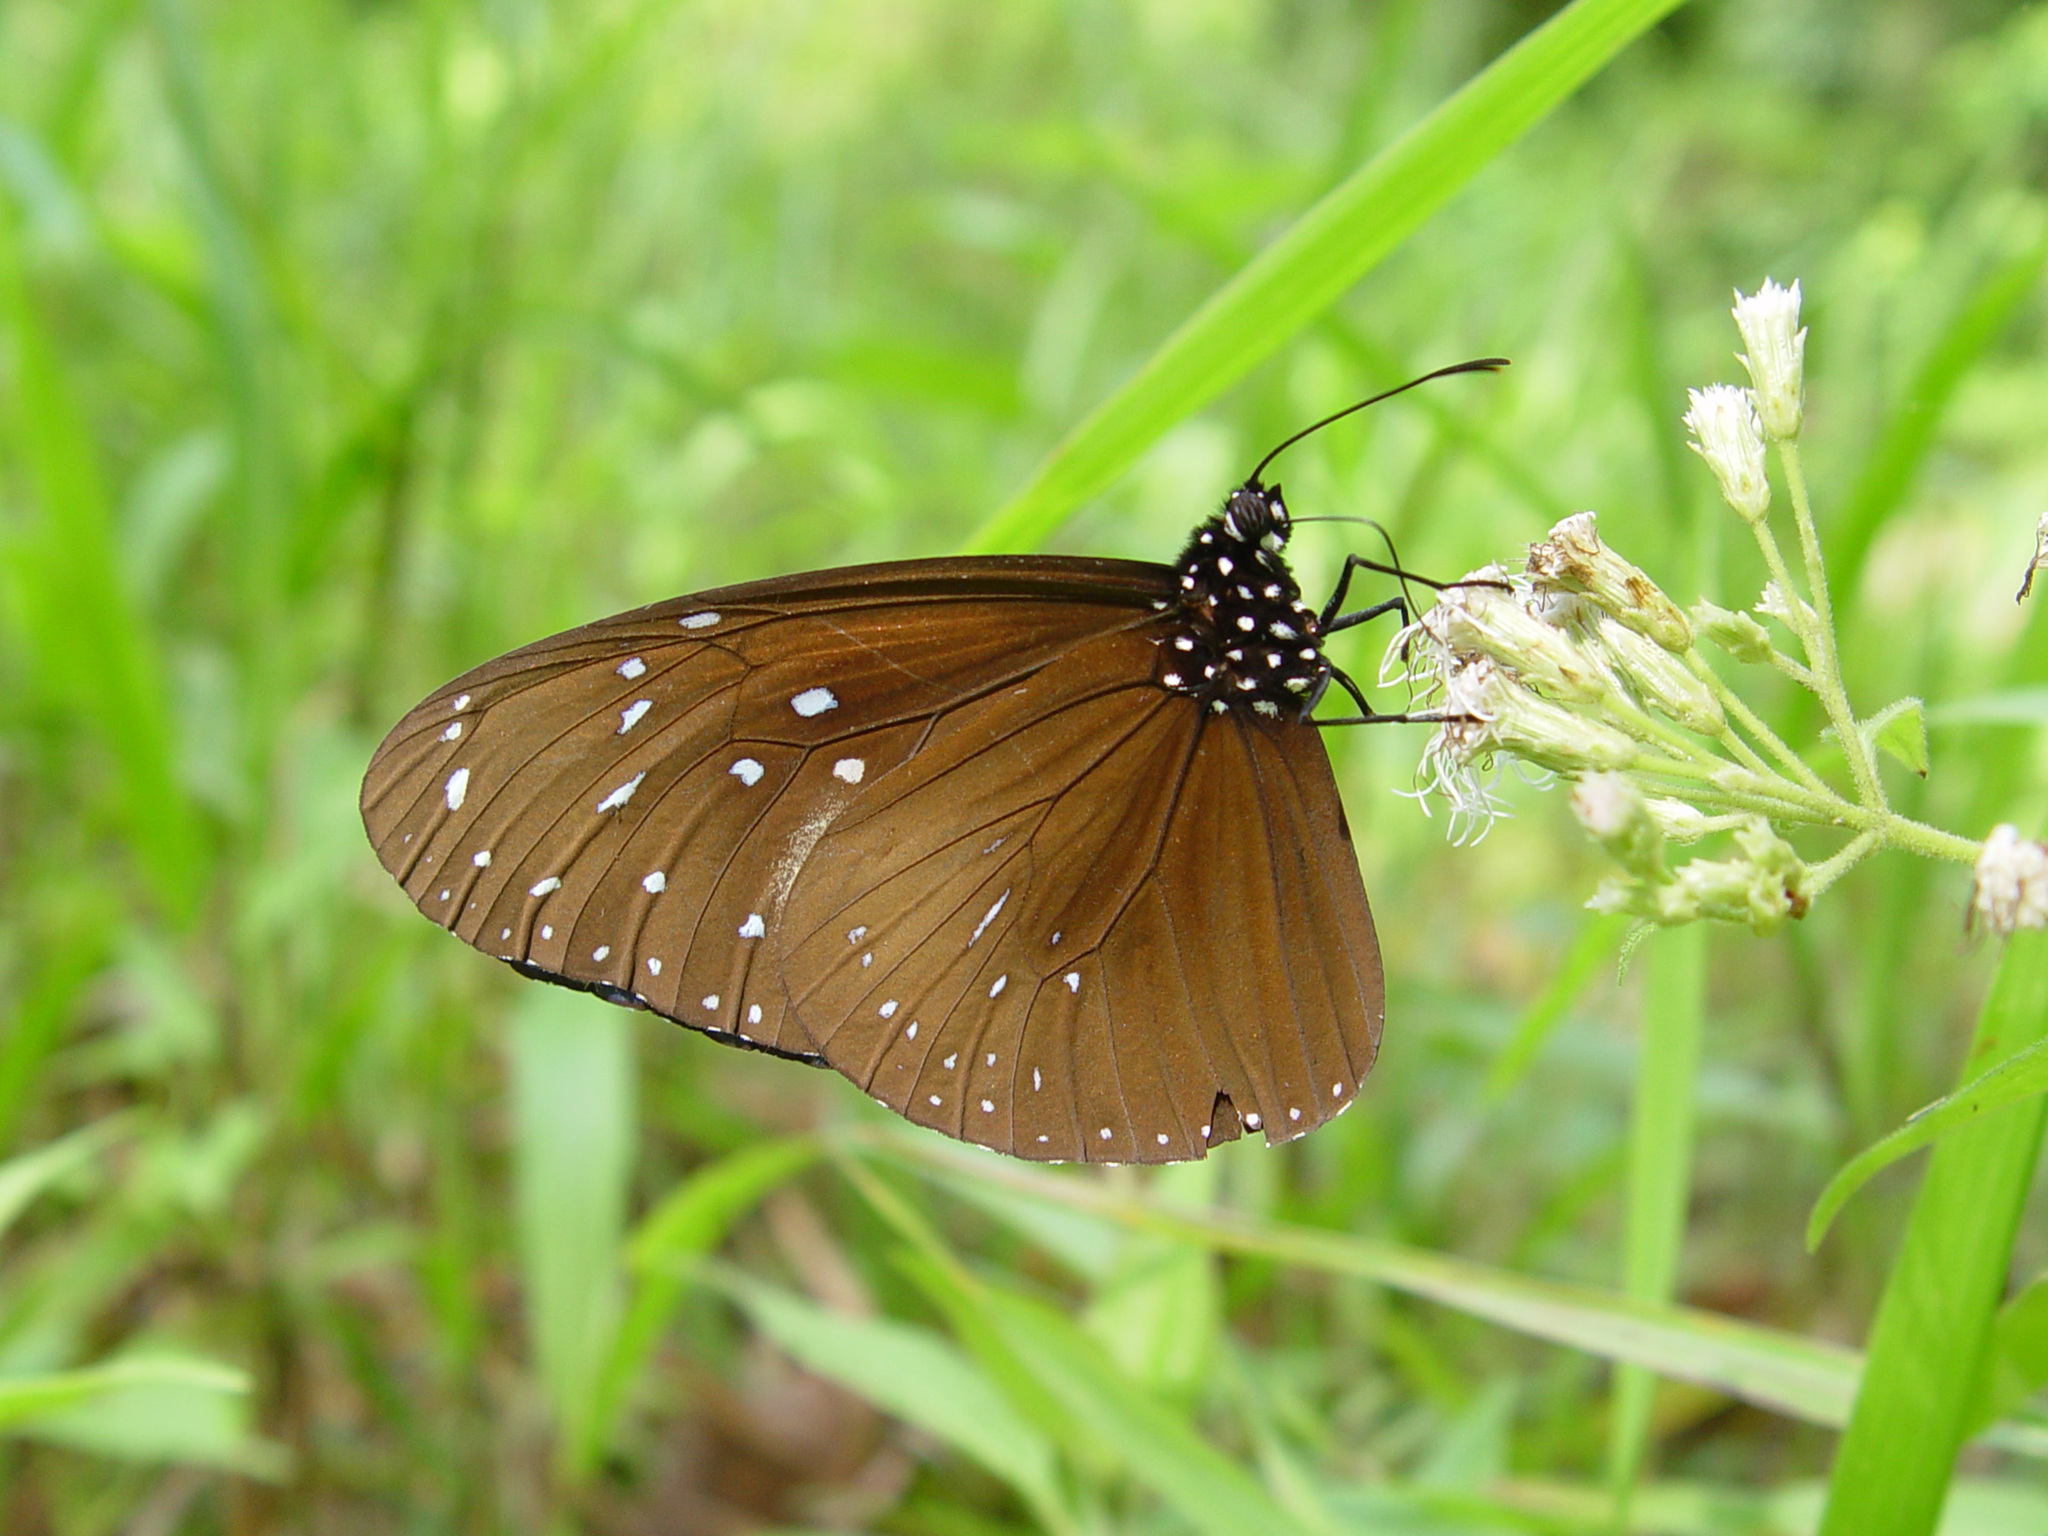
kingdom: Animalia
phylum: Arthropoda
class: Insecta
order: Lepidoptera
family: Nymphalidae
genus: Euploea
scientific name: Euploea mulciber
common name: Striped blue crow butterfly
